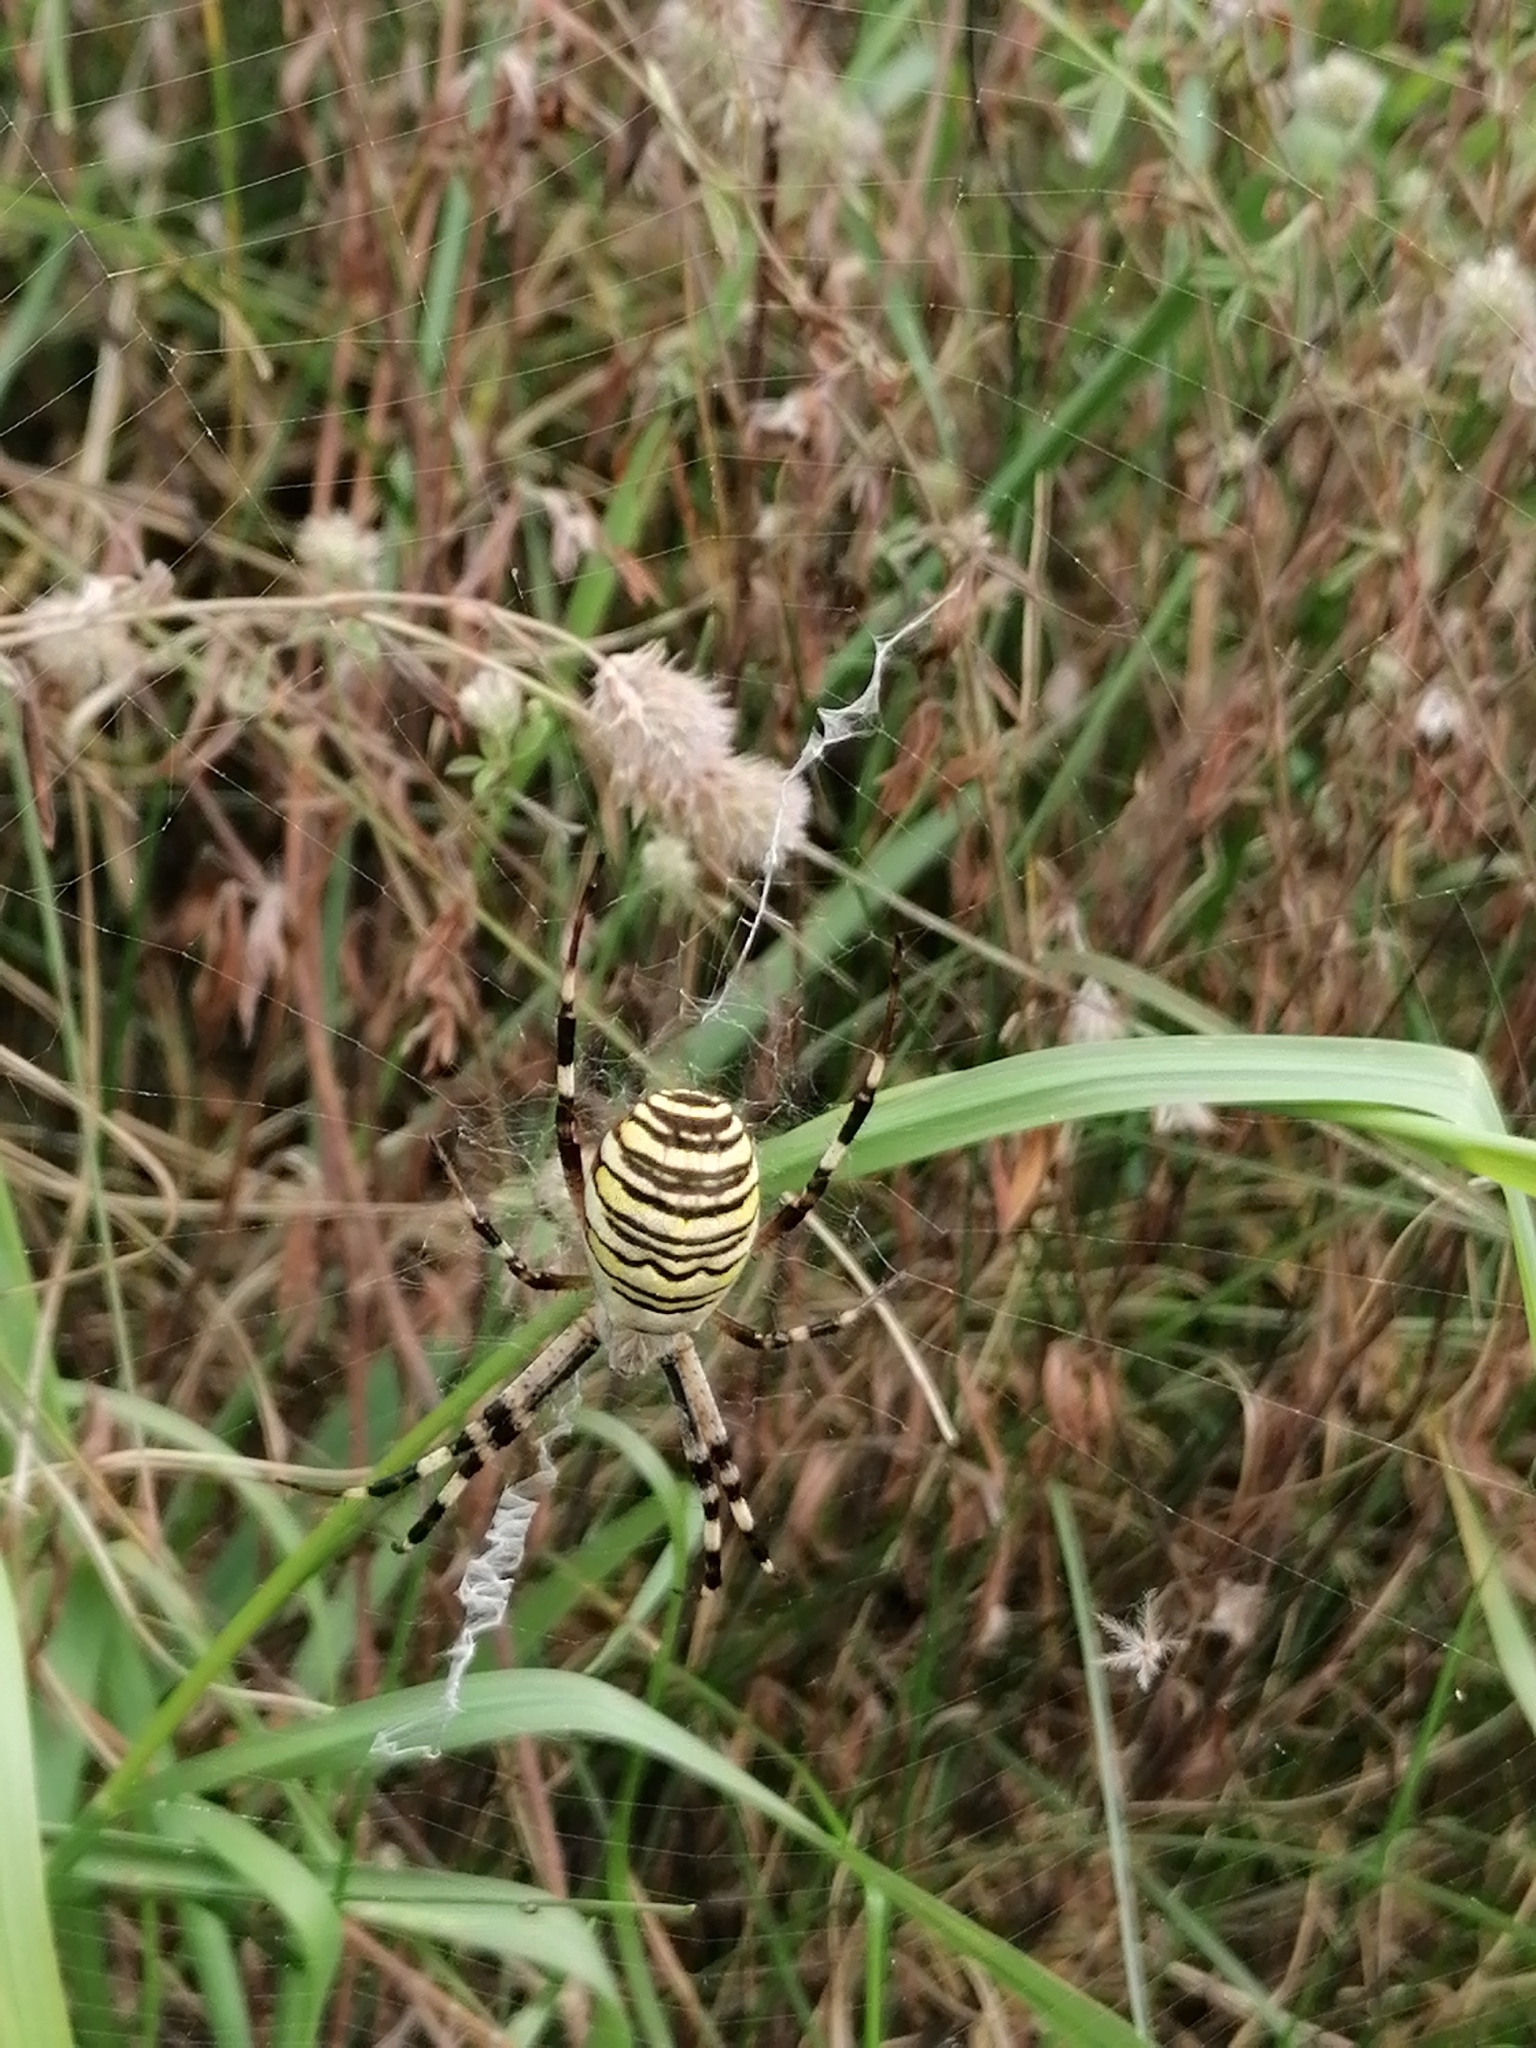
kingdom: Animalia
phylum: Arthropoda
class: Arachnida
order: Araneae
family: Araneidae
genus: Argiope
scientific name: Argiope bruennichi
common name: Wasp spider
